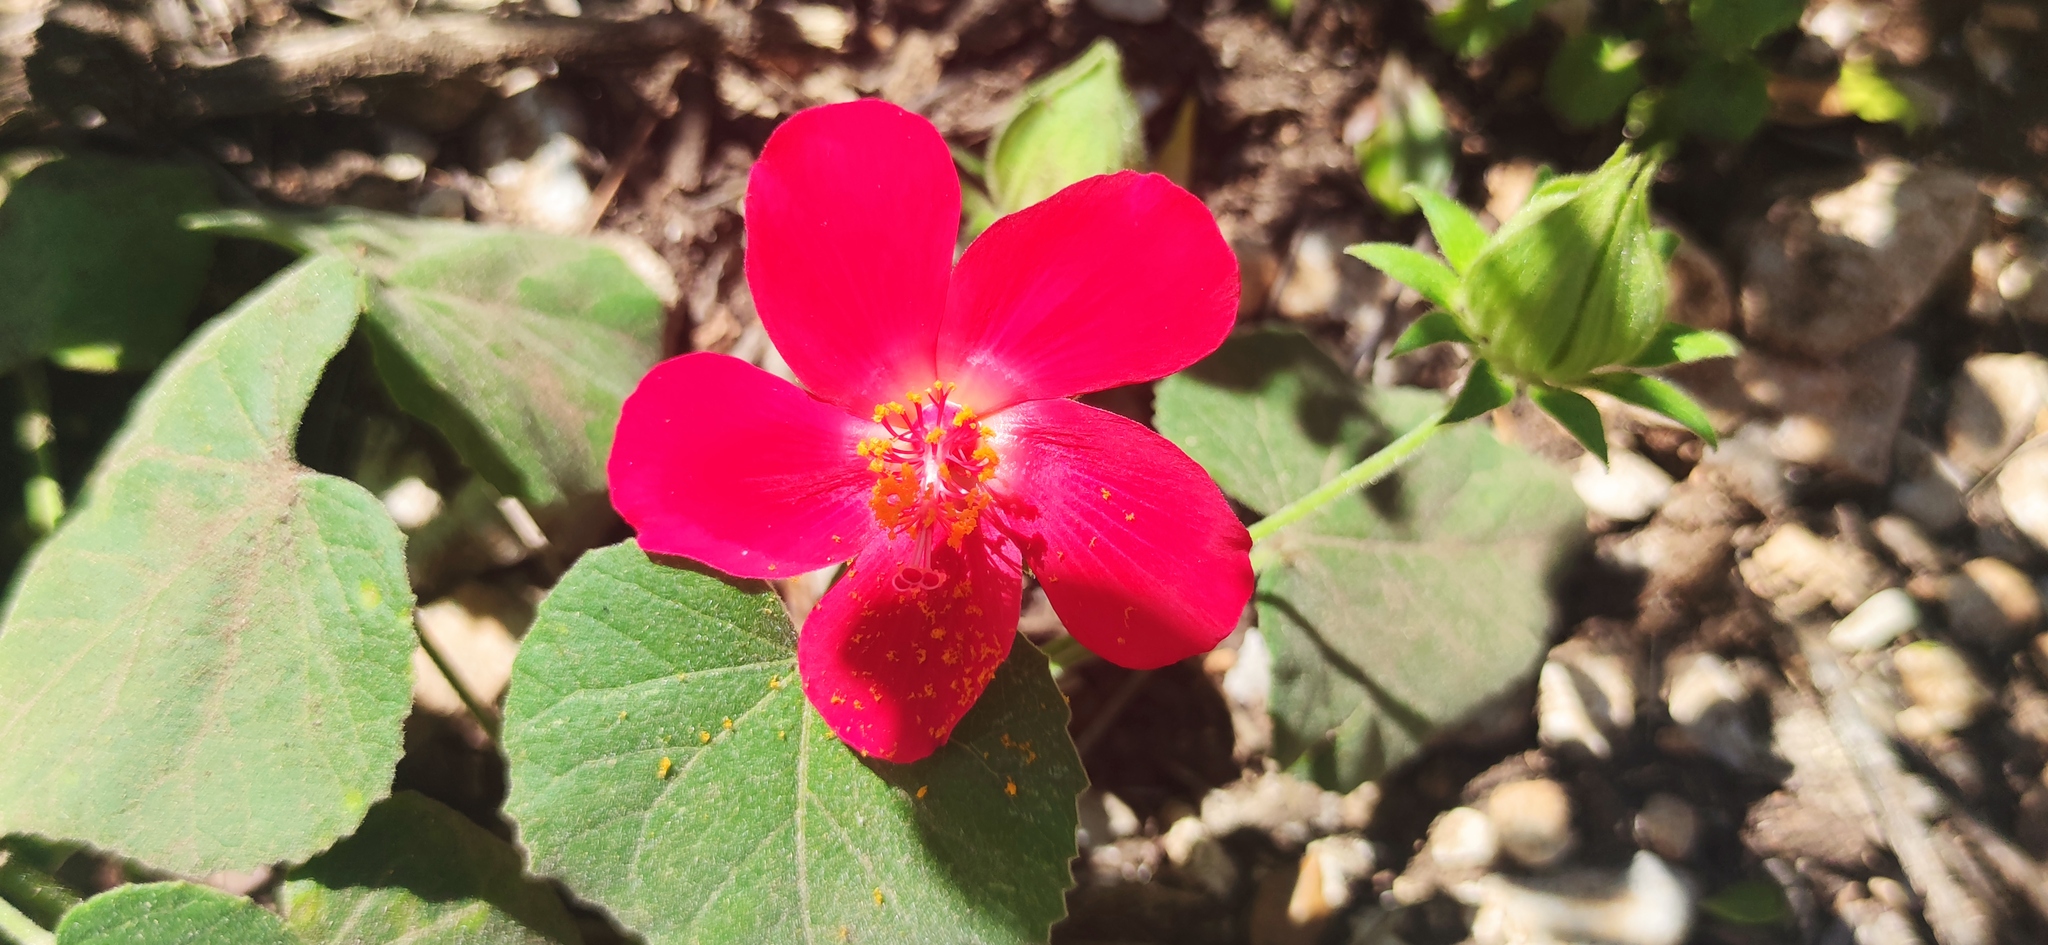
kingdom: Plantae
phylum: Tracheophyta
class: Magnoliopsida
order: Malvales
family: Malvaceae
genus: Hibiscus
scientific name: Hibiscus martianus
